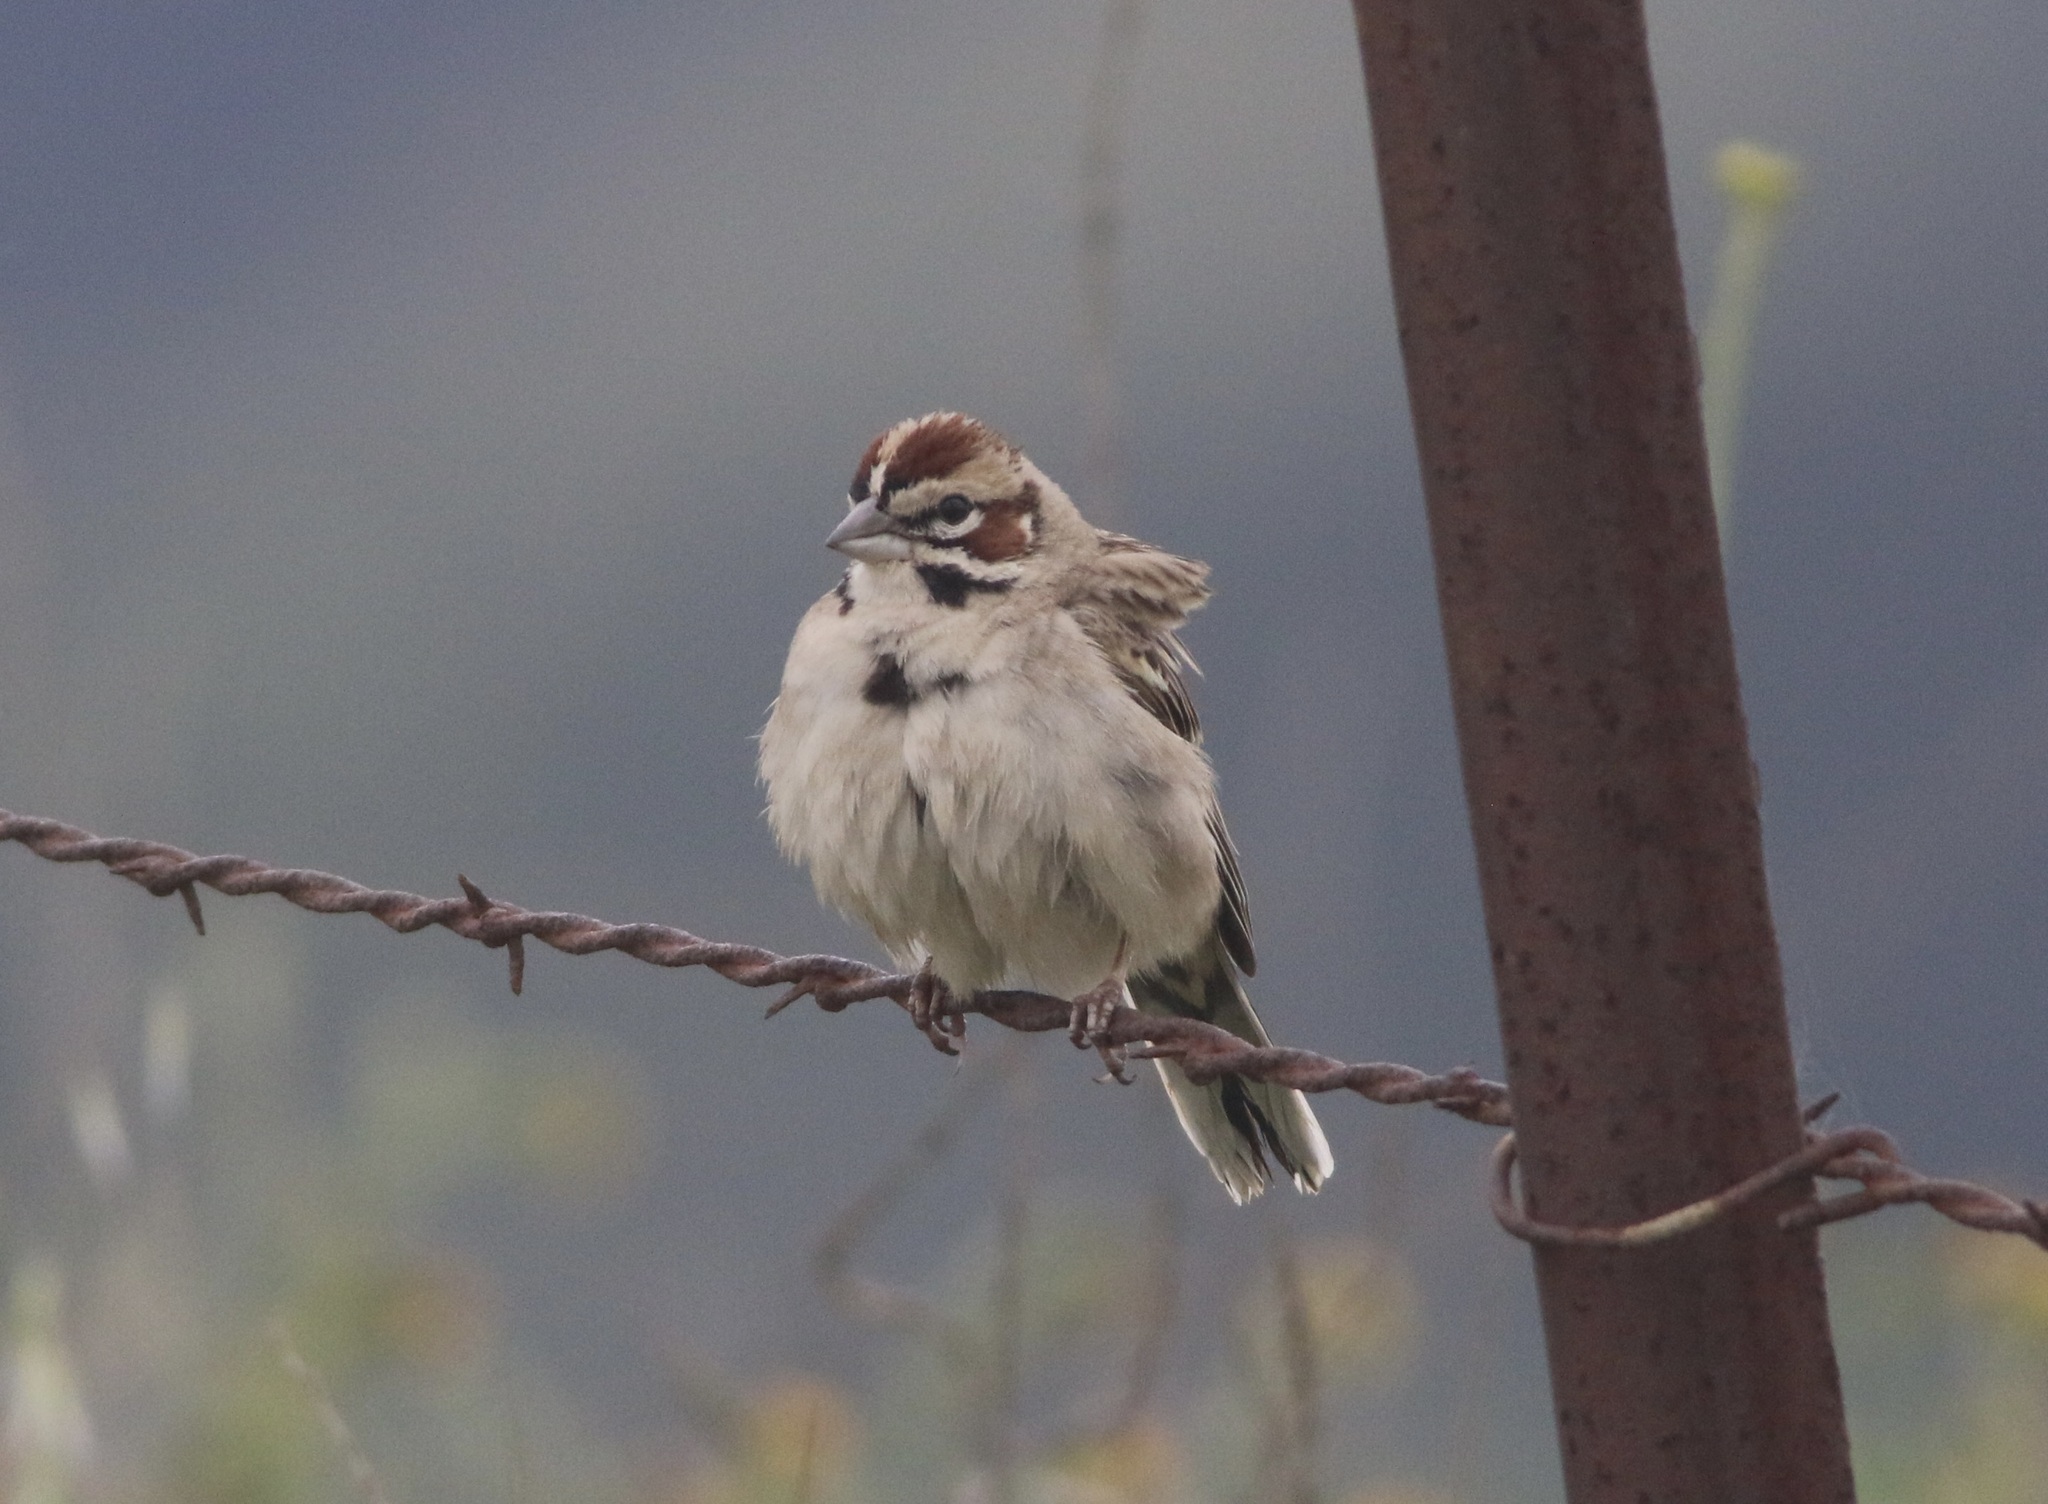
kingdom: Animalia
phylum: Chordata
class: Aves
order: Passeriformes
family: Passerellidae
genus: Chondestes
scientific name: Chondestes grammacus
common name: Lark sparrow
